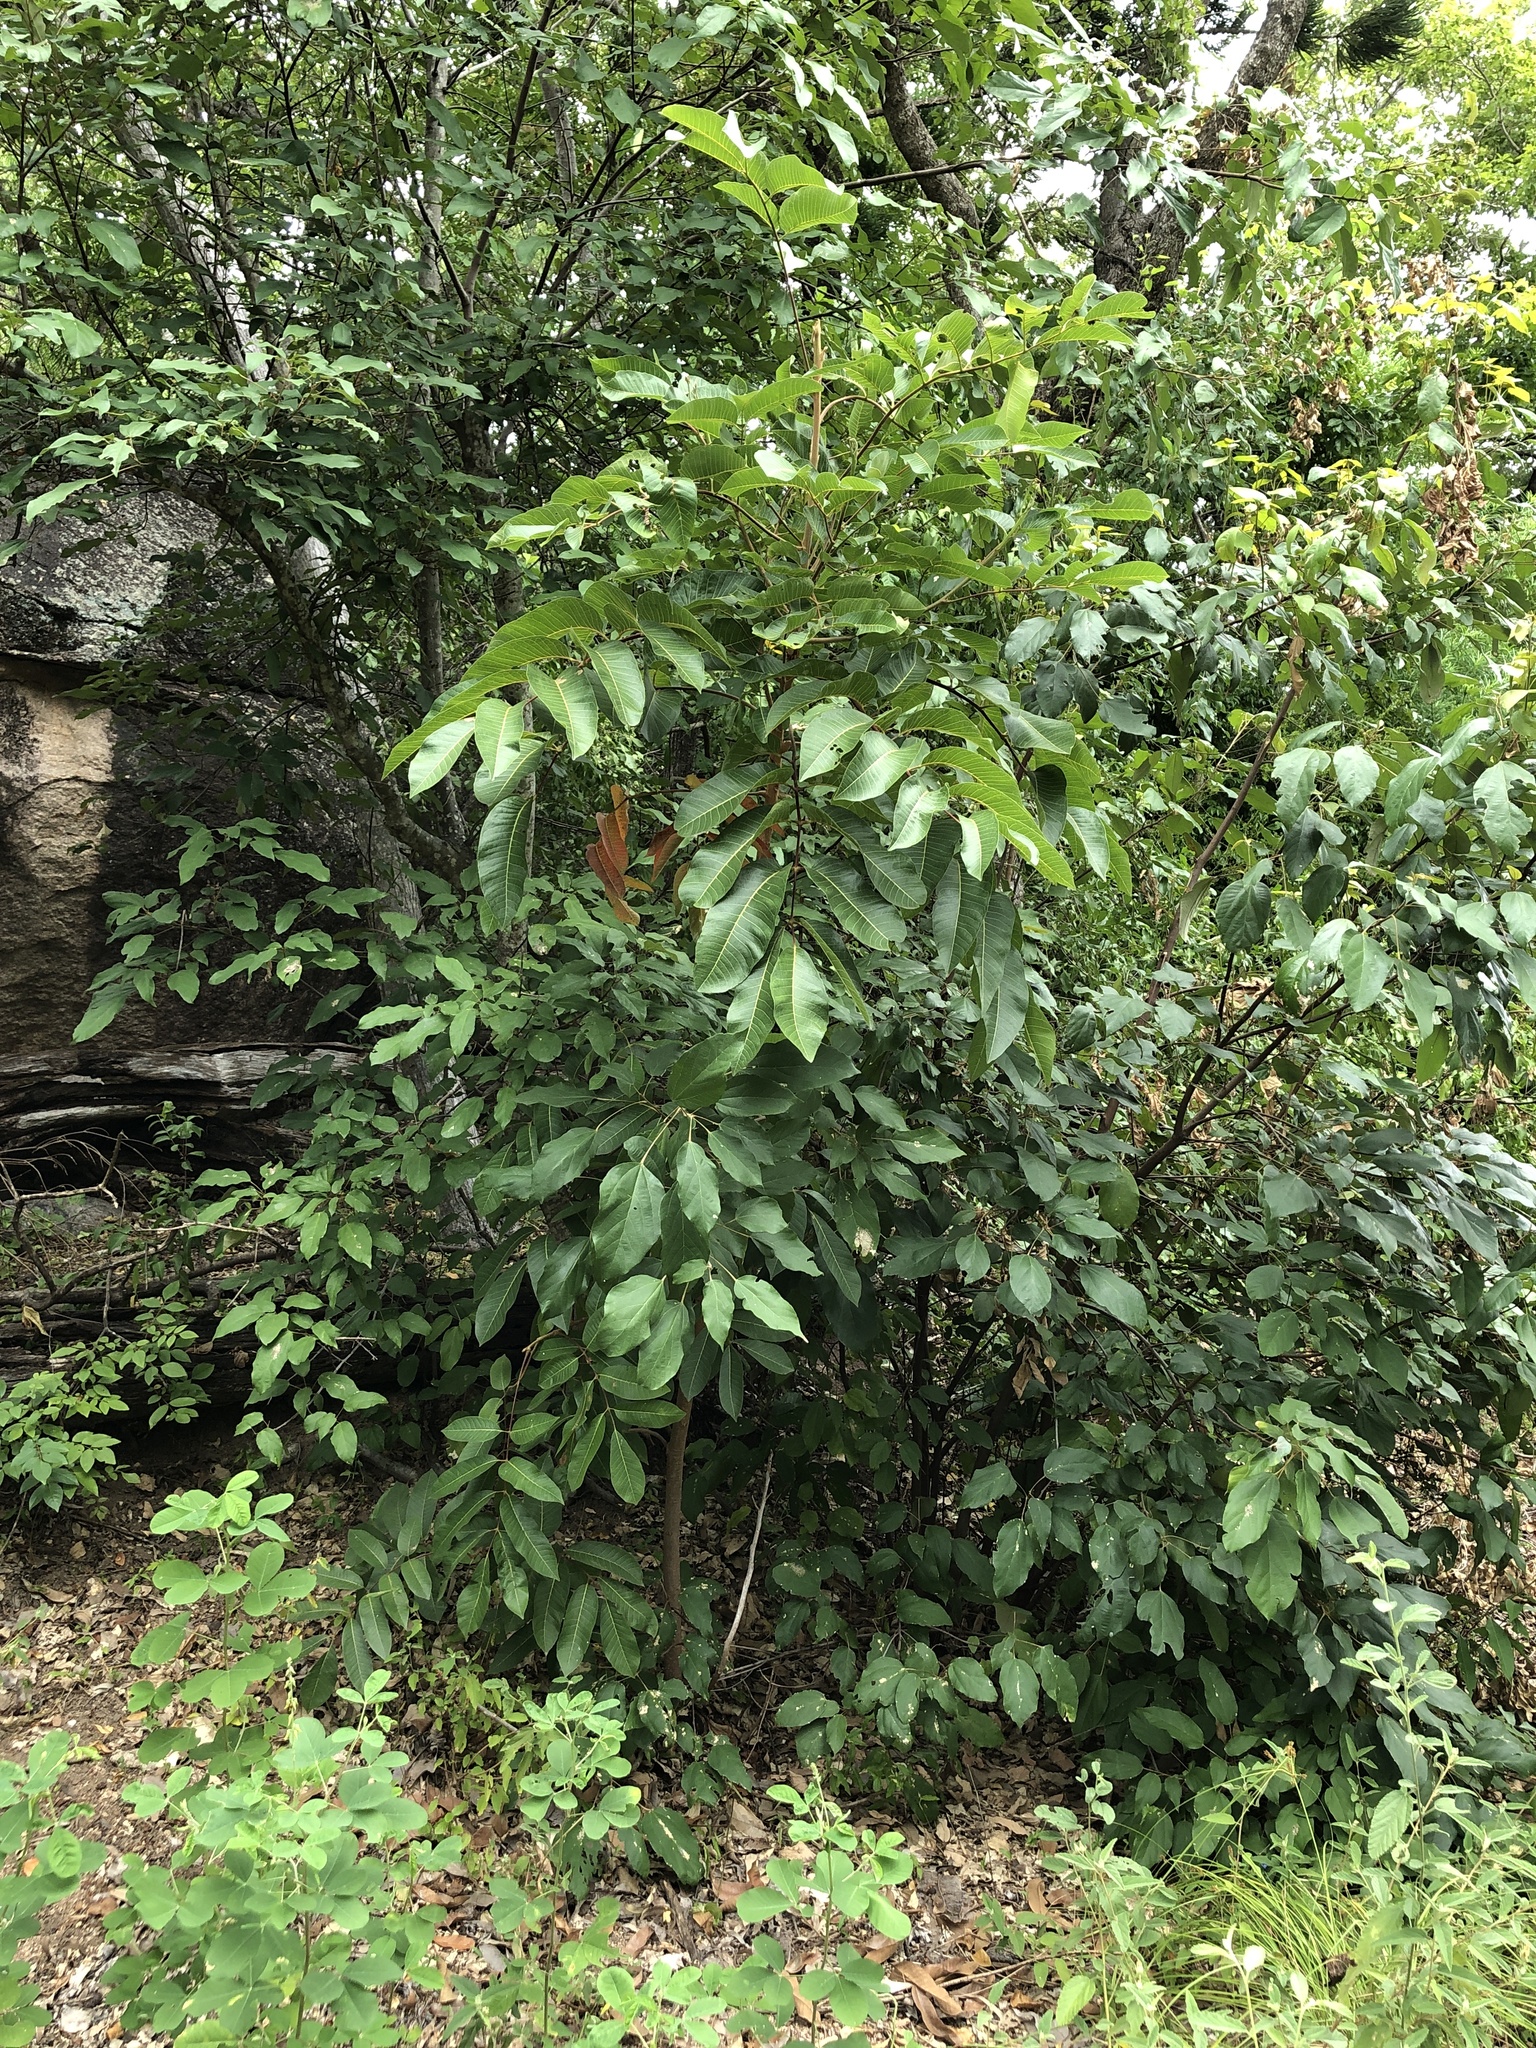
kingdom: Plantae
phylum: Tracheophyta
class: Magnoliopsida
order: Sapindales
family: Burseraceae
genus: Canarium
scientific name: Canarium australianum
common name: Island white-beech
